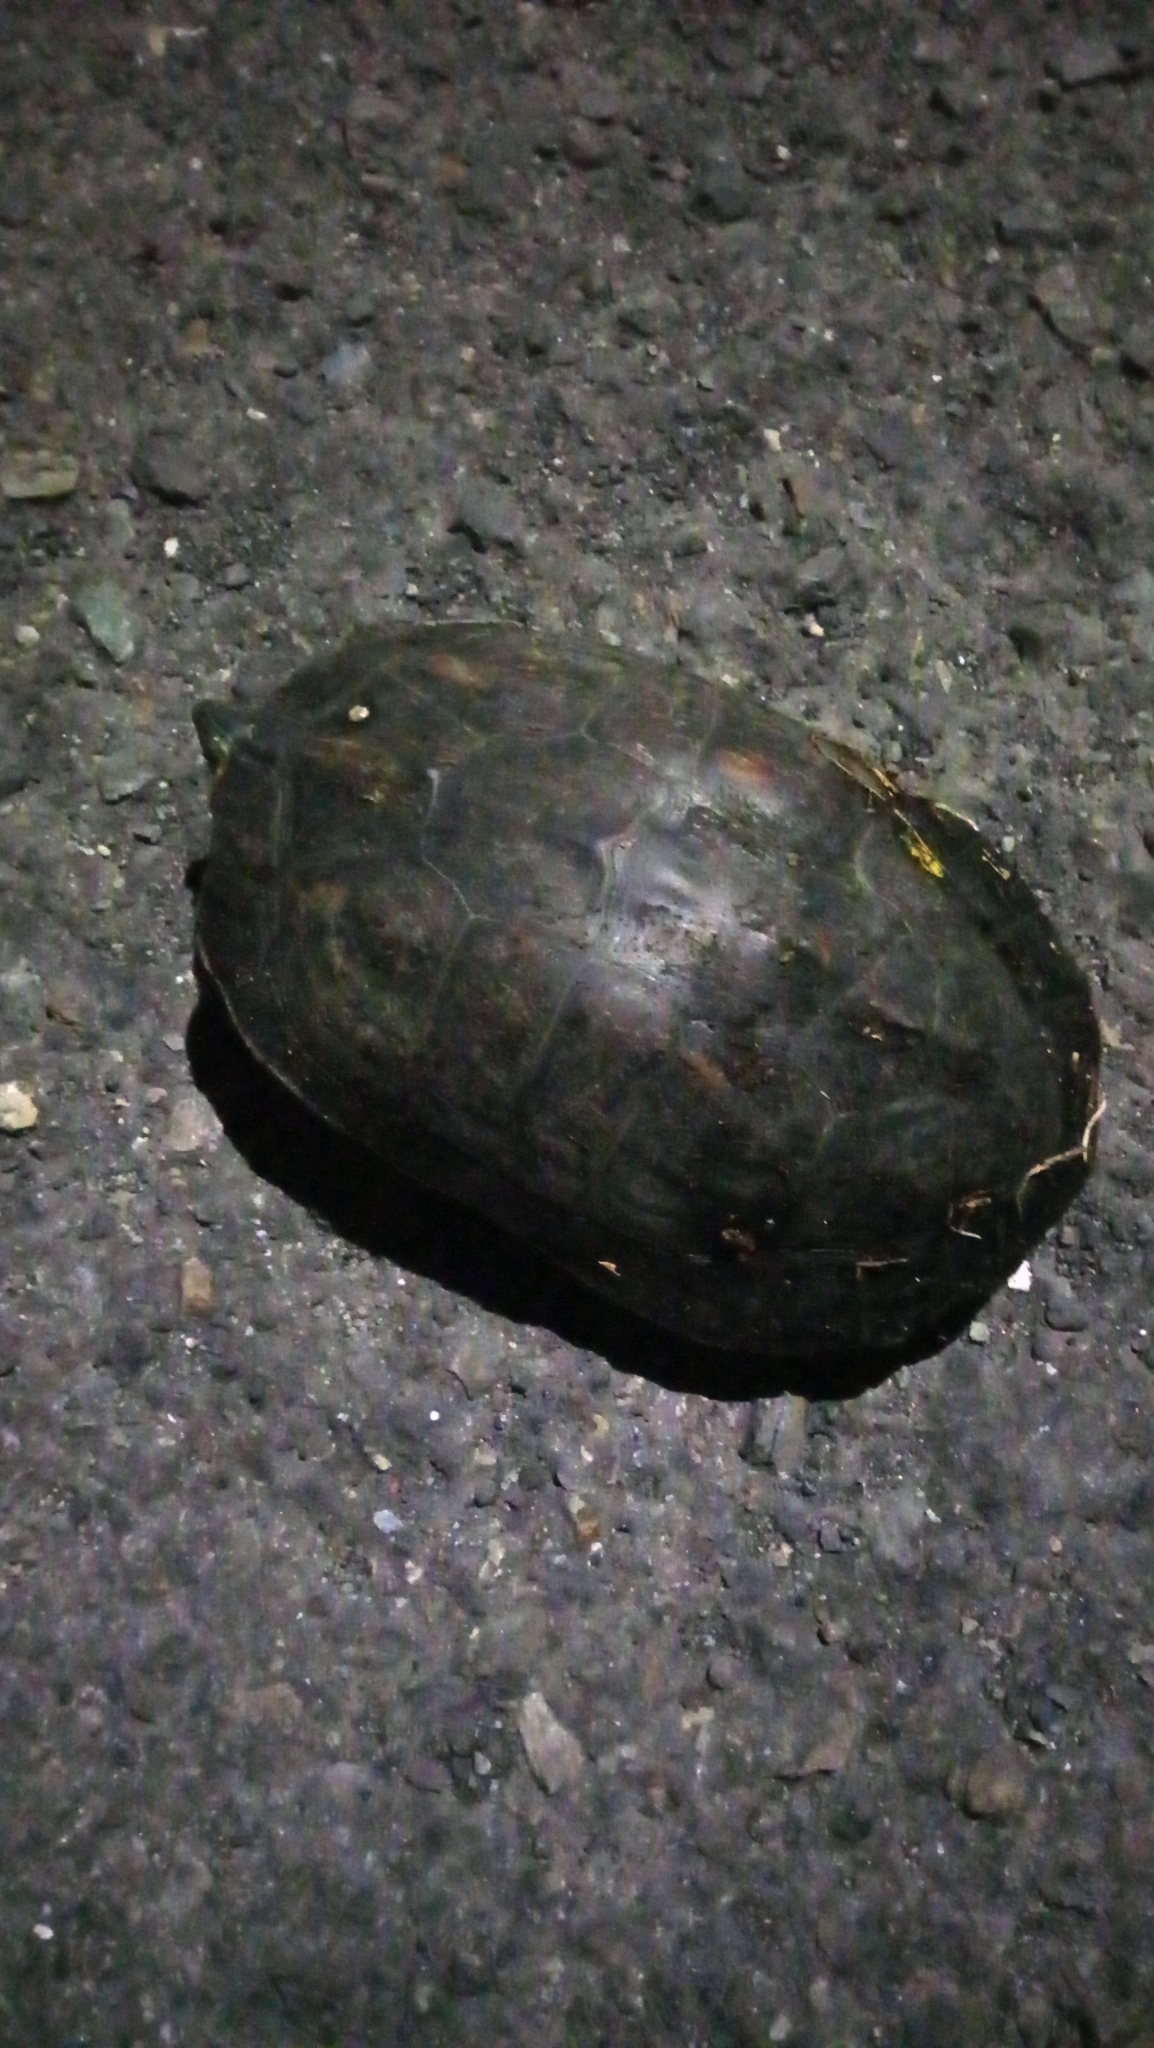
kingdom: Animalia
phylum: Chordata
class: Testudines
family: Geoemydidae
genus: Mauremys
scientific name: Mauremys sinensis
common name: Chinese stripe-necked turtle
